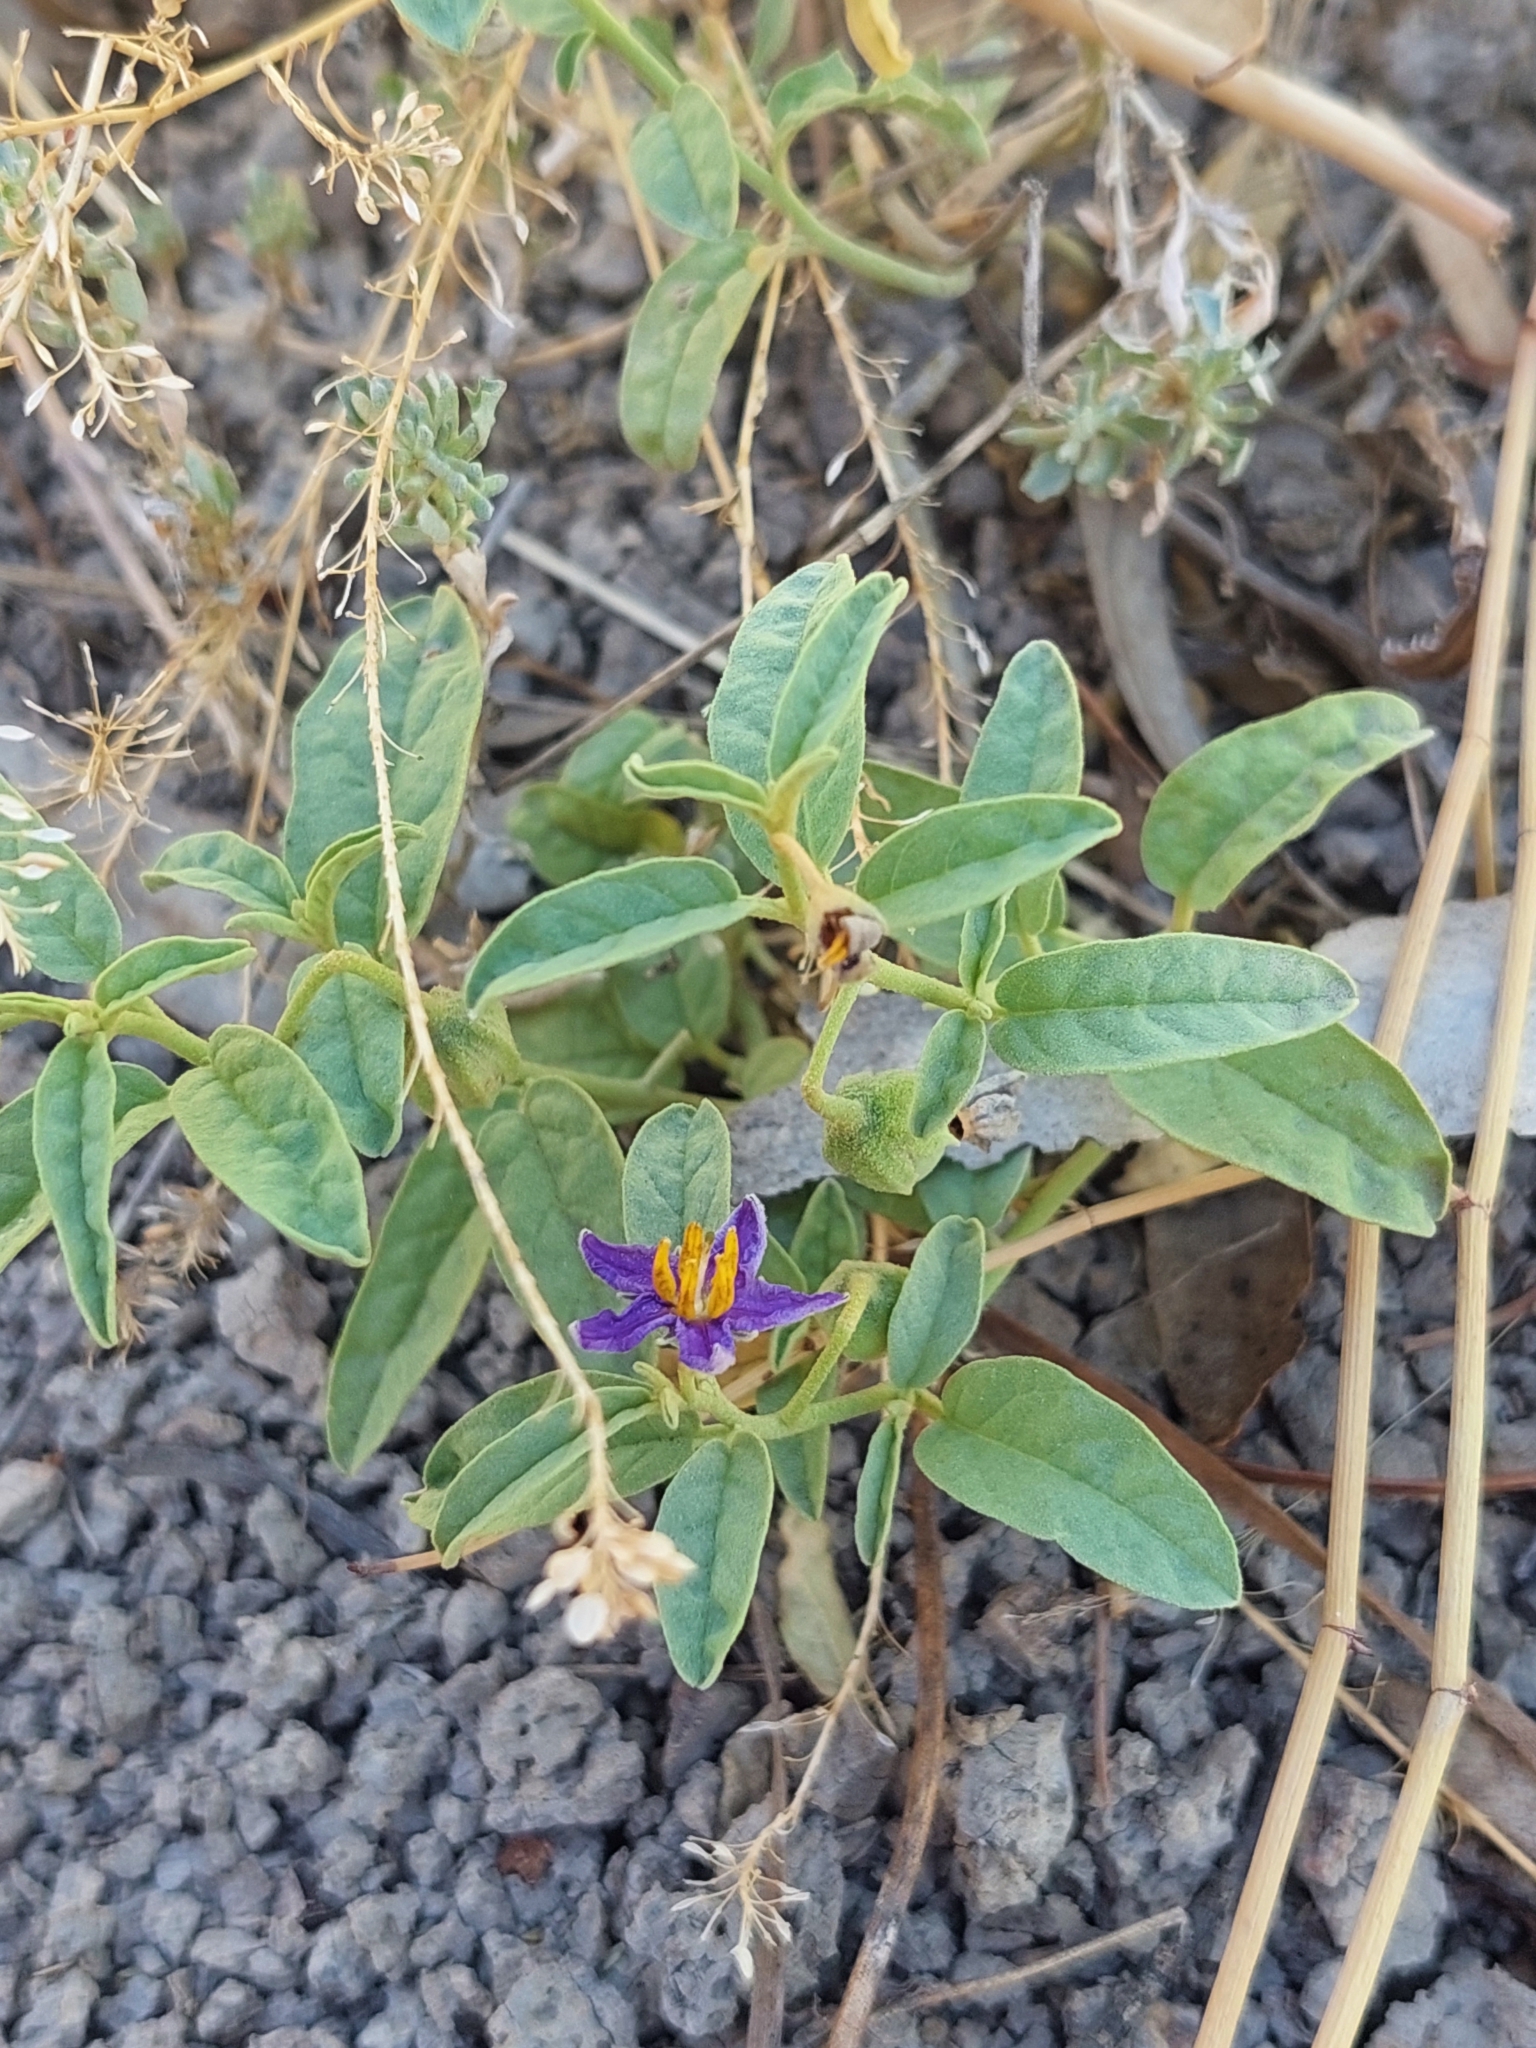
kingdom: Plantae
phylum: Tracheophyta
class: Magnoliopsida
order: Solanales
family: Solanaceae
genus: Solanum
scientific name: Solanum esuriale
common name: Wild tomato
